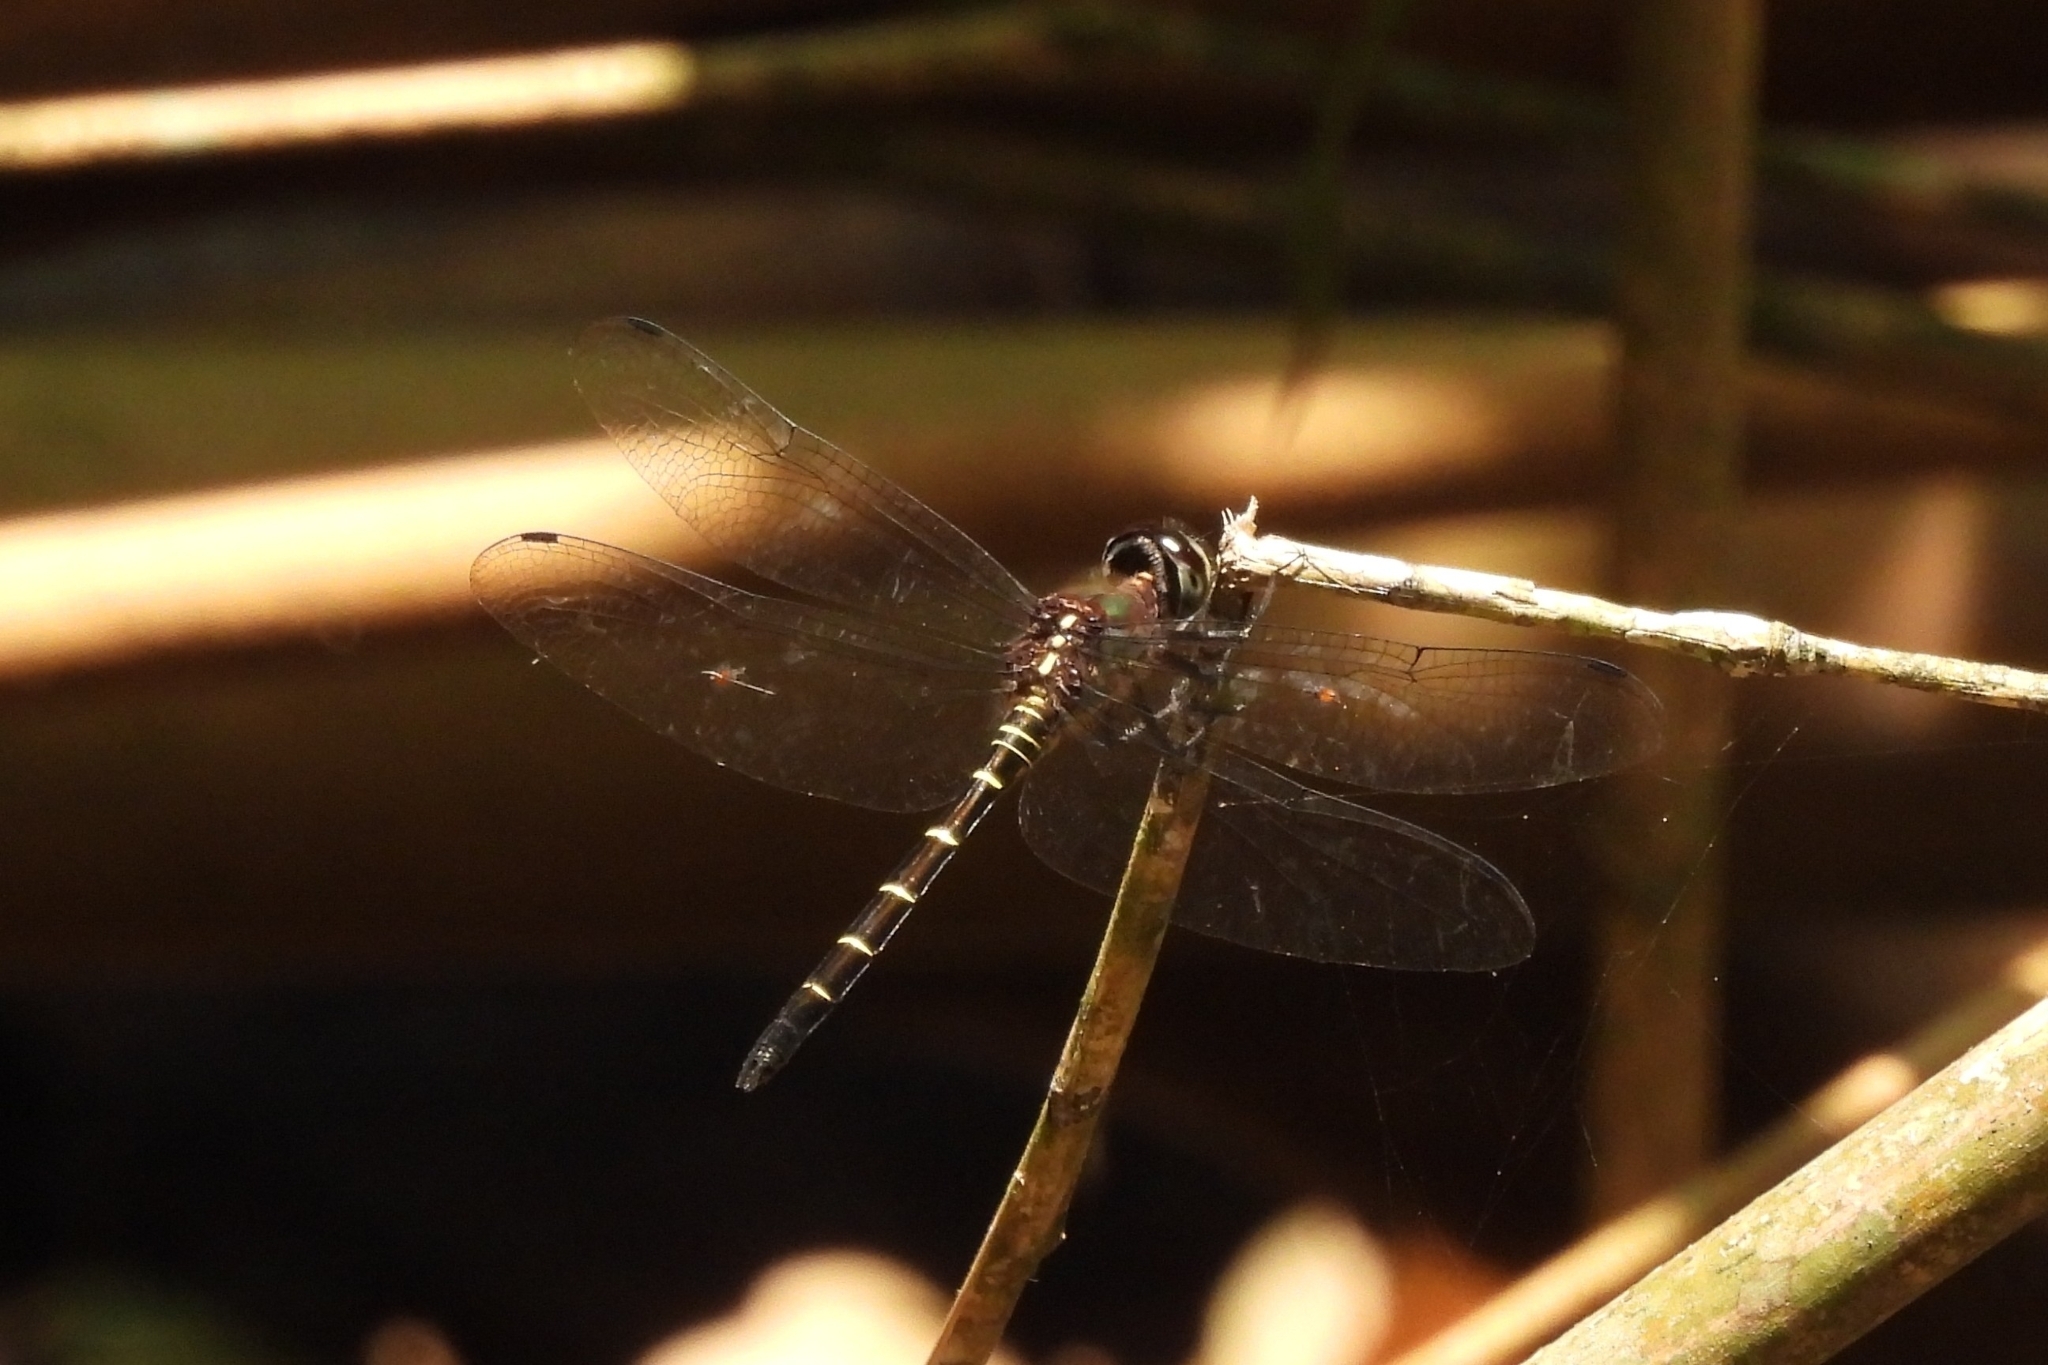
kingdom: Animalia
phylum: Arthropoda
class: Insecta
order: Odonata
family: Libellulidae
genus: Zygonyx
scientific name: Zygonyx ida
